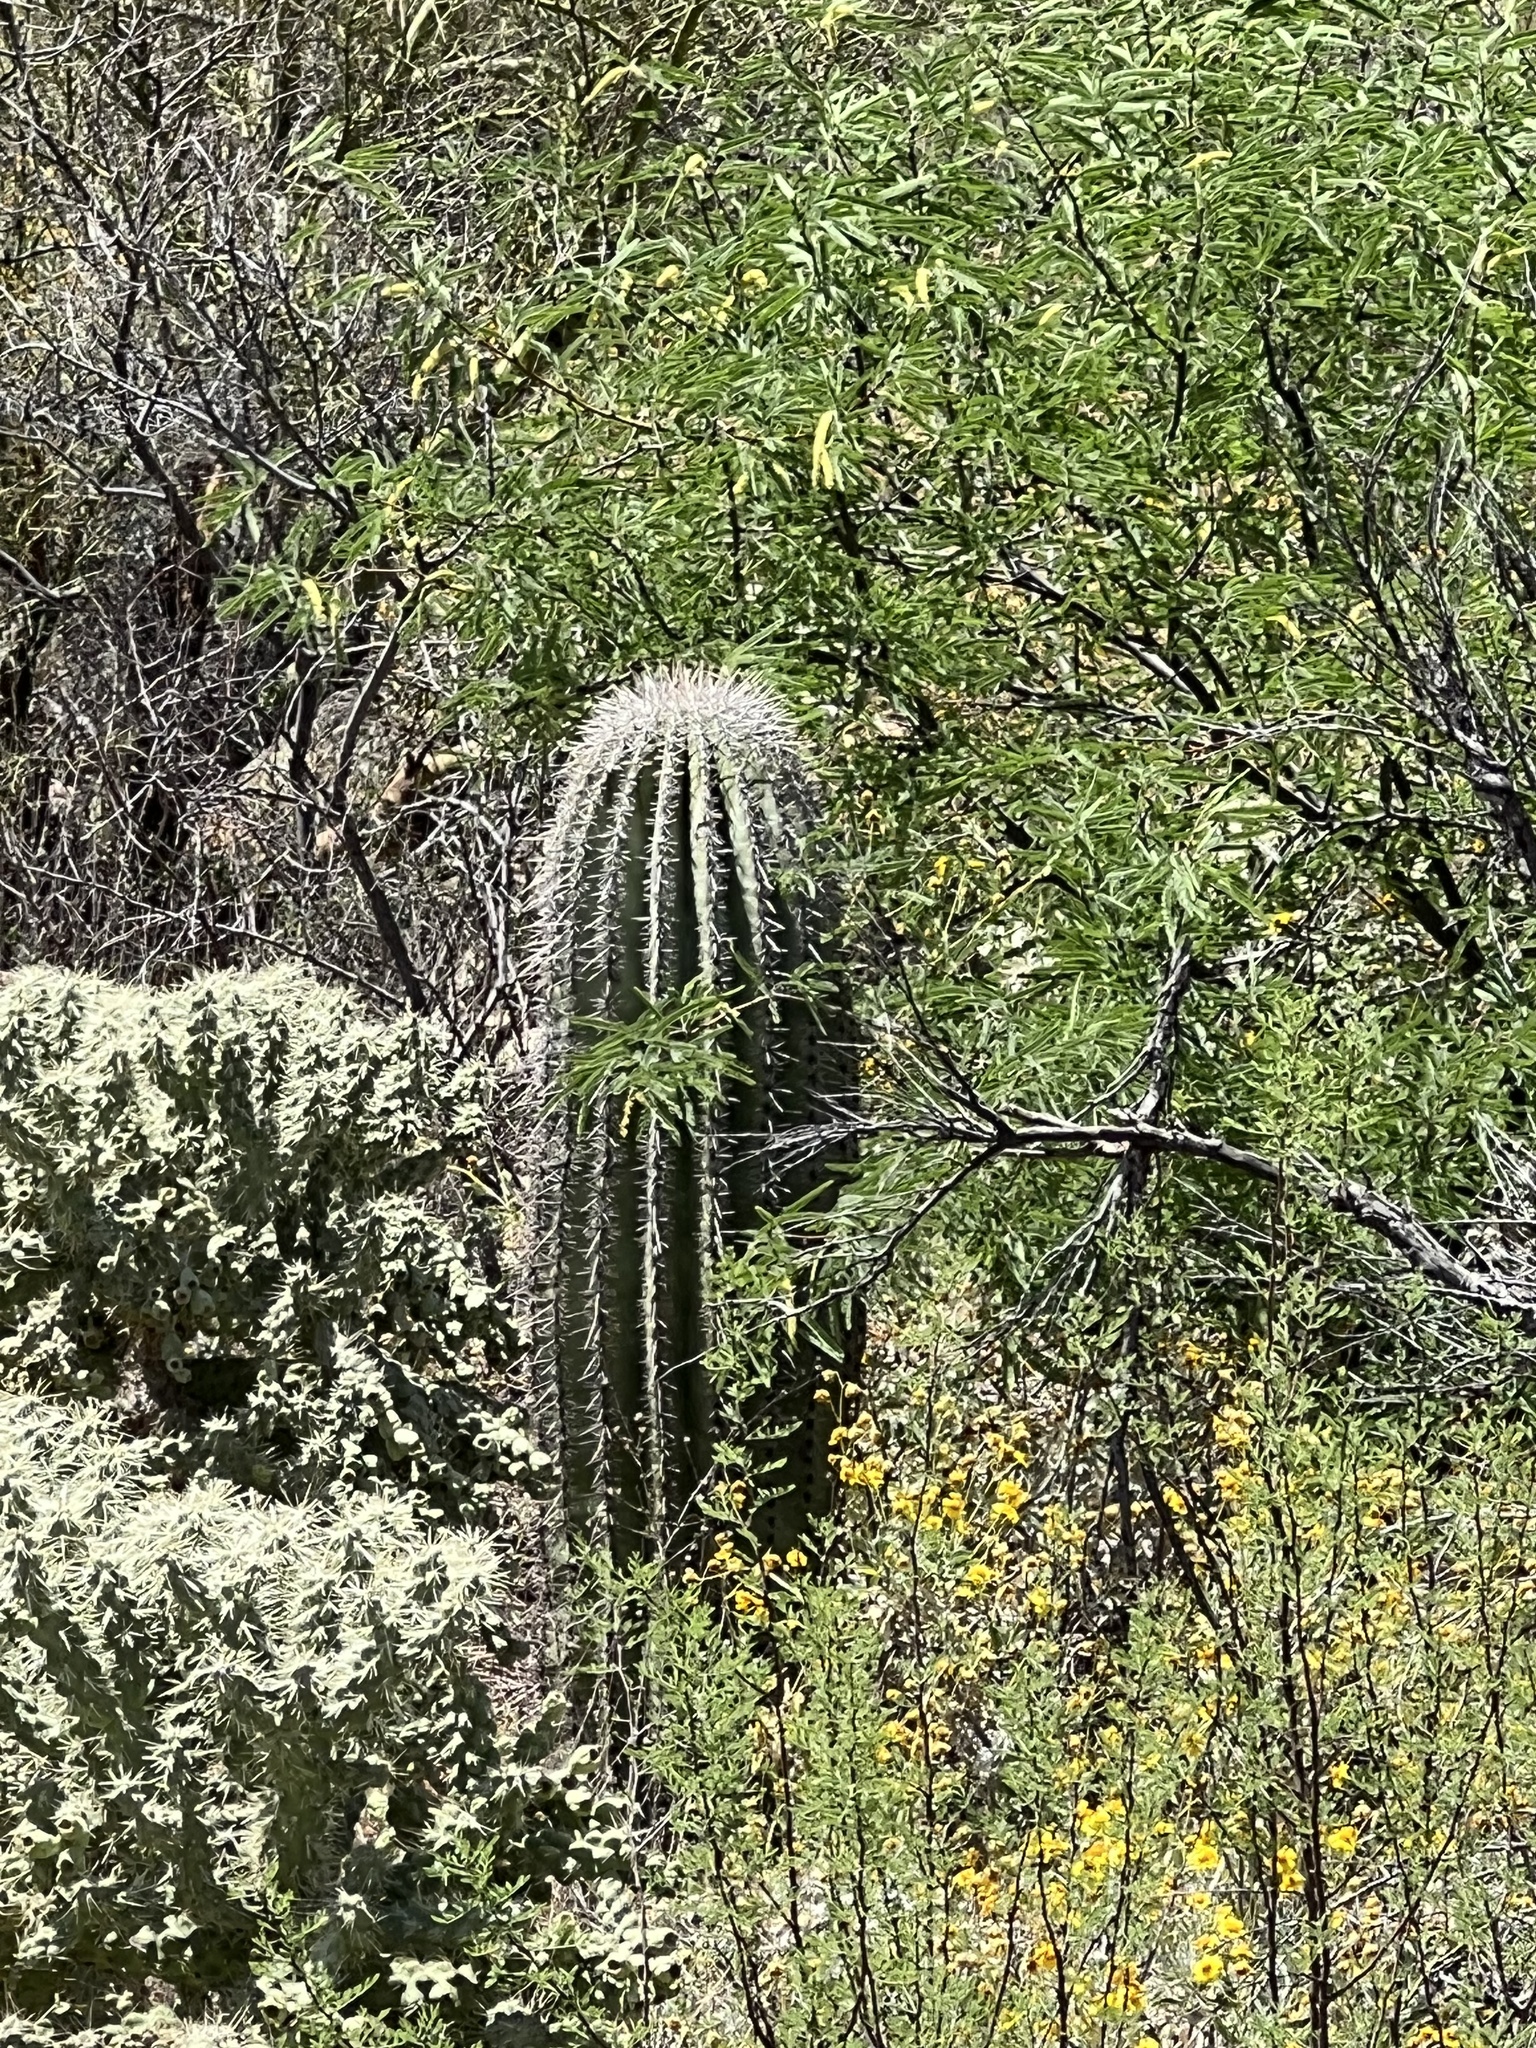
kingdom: Plantae
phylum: Tracheophyta
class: Magnoliopsida
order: Caryophyllales
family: Cactaceae
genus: Carnegiea
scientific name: Carnegiea gigantea
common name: Saguaro
